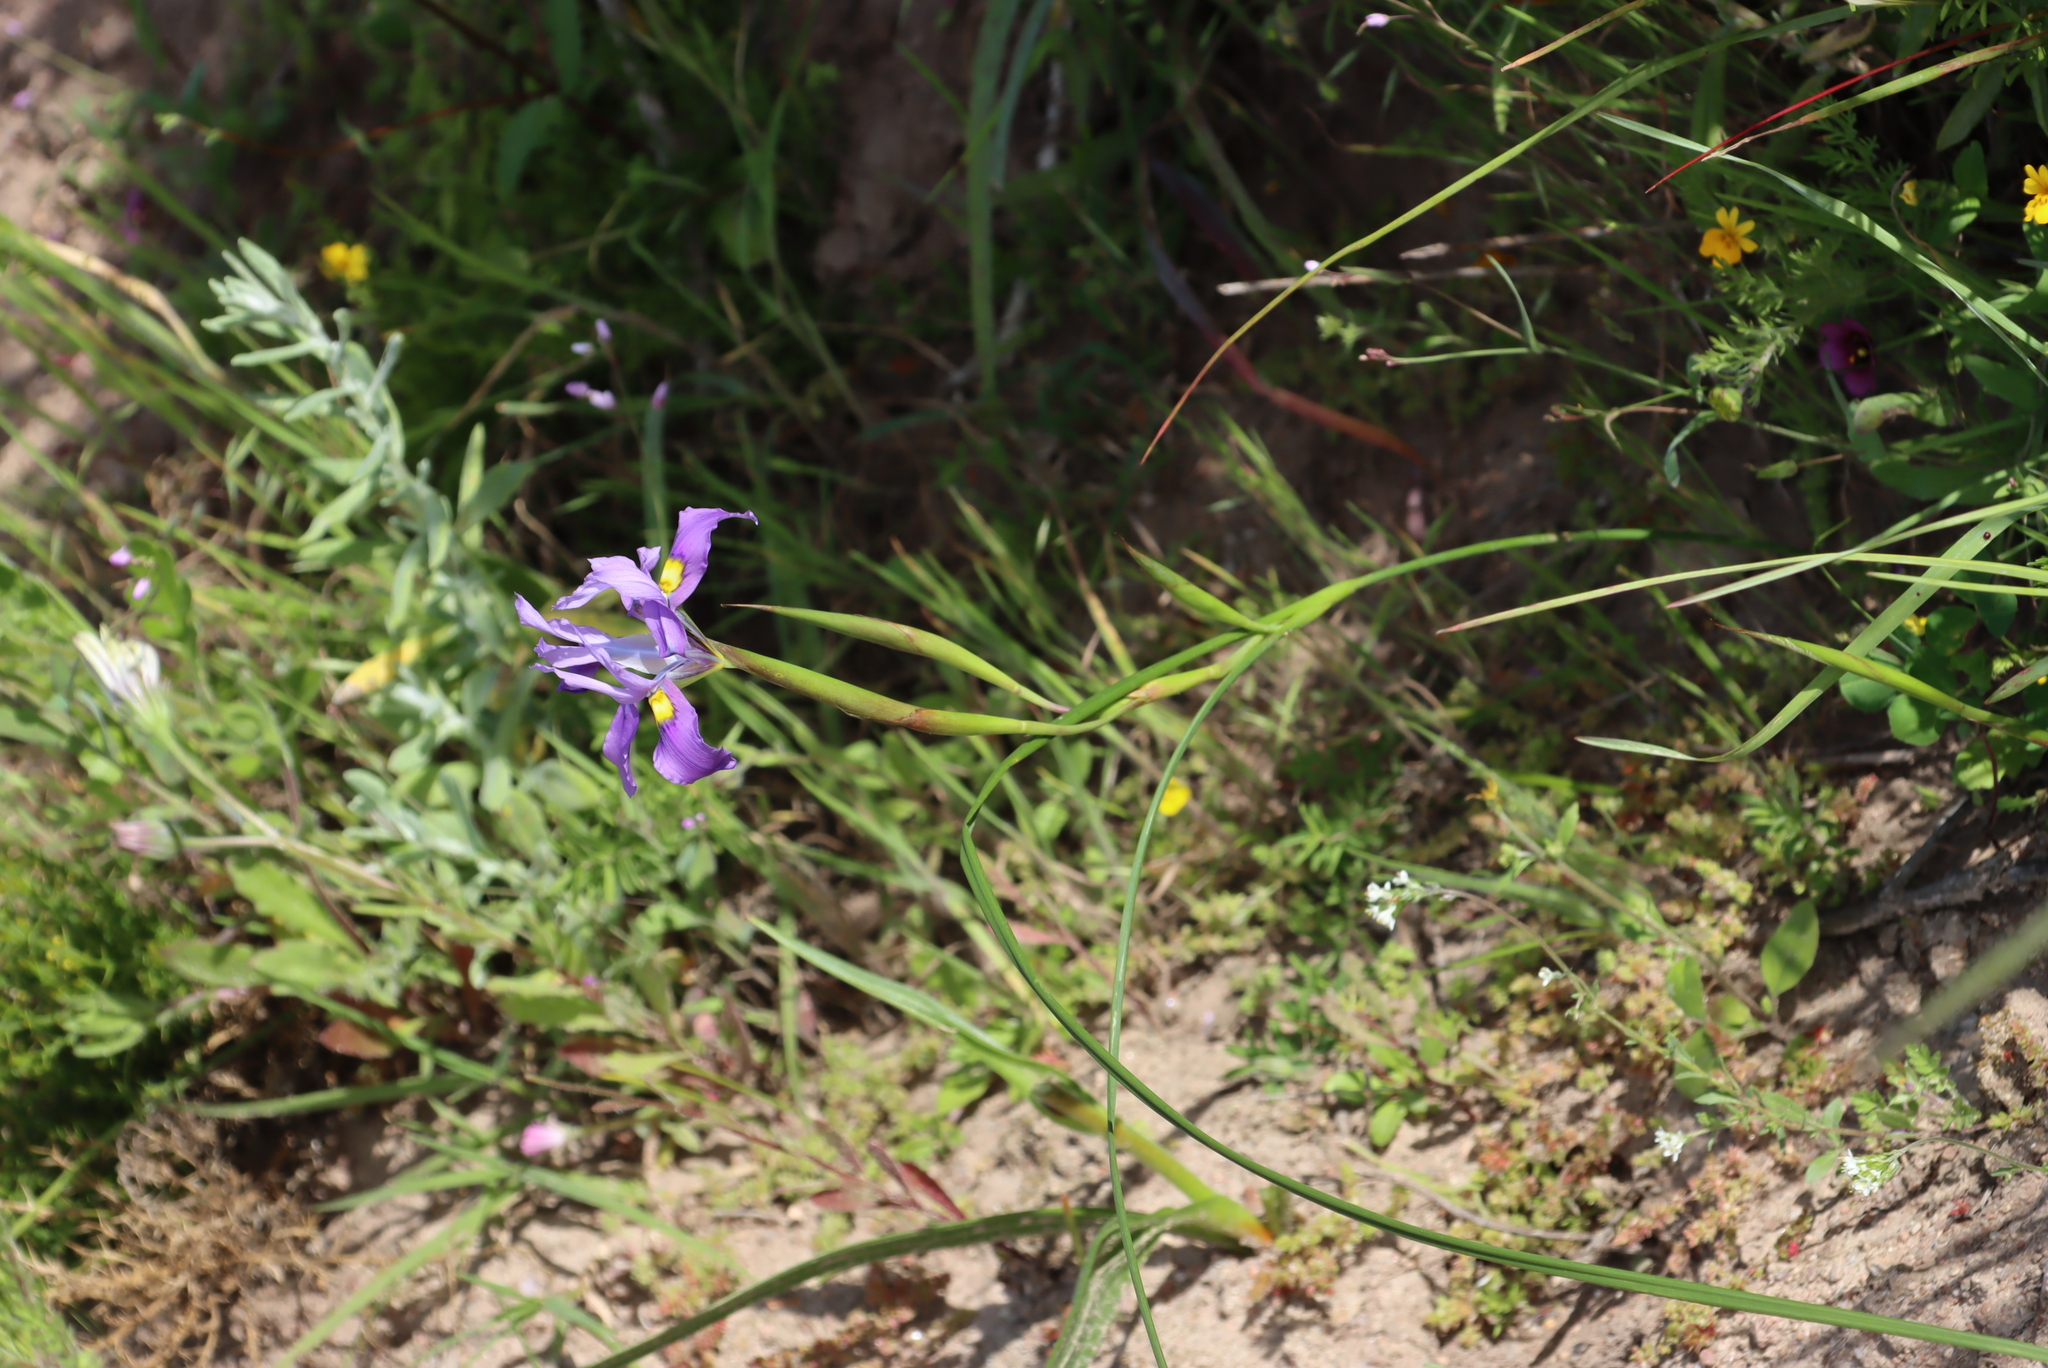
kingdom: Plantae
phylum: Tracheophyta
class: Liliopsida
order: Asparagales
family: Iridaceae
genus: Moraea
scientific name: Moraea fugax
